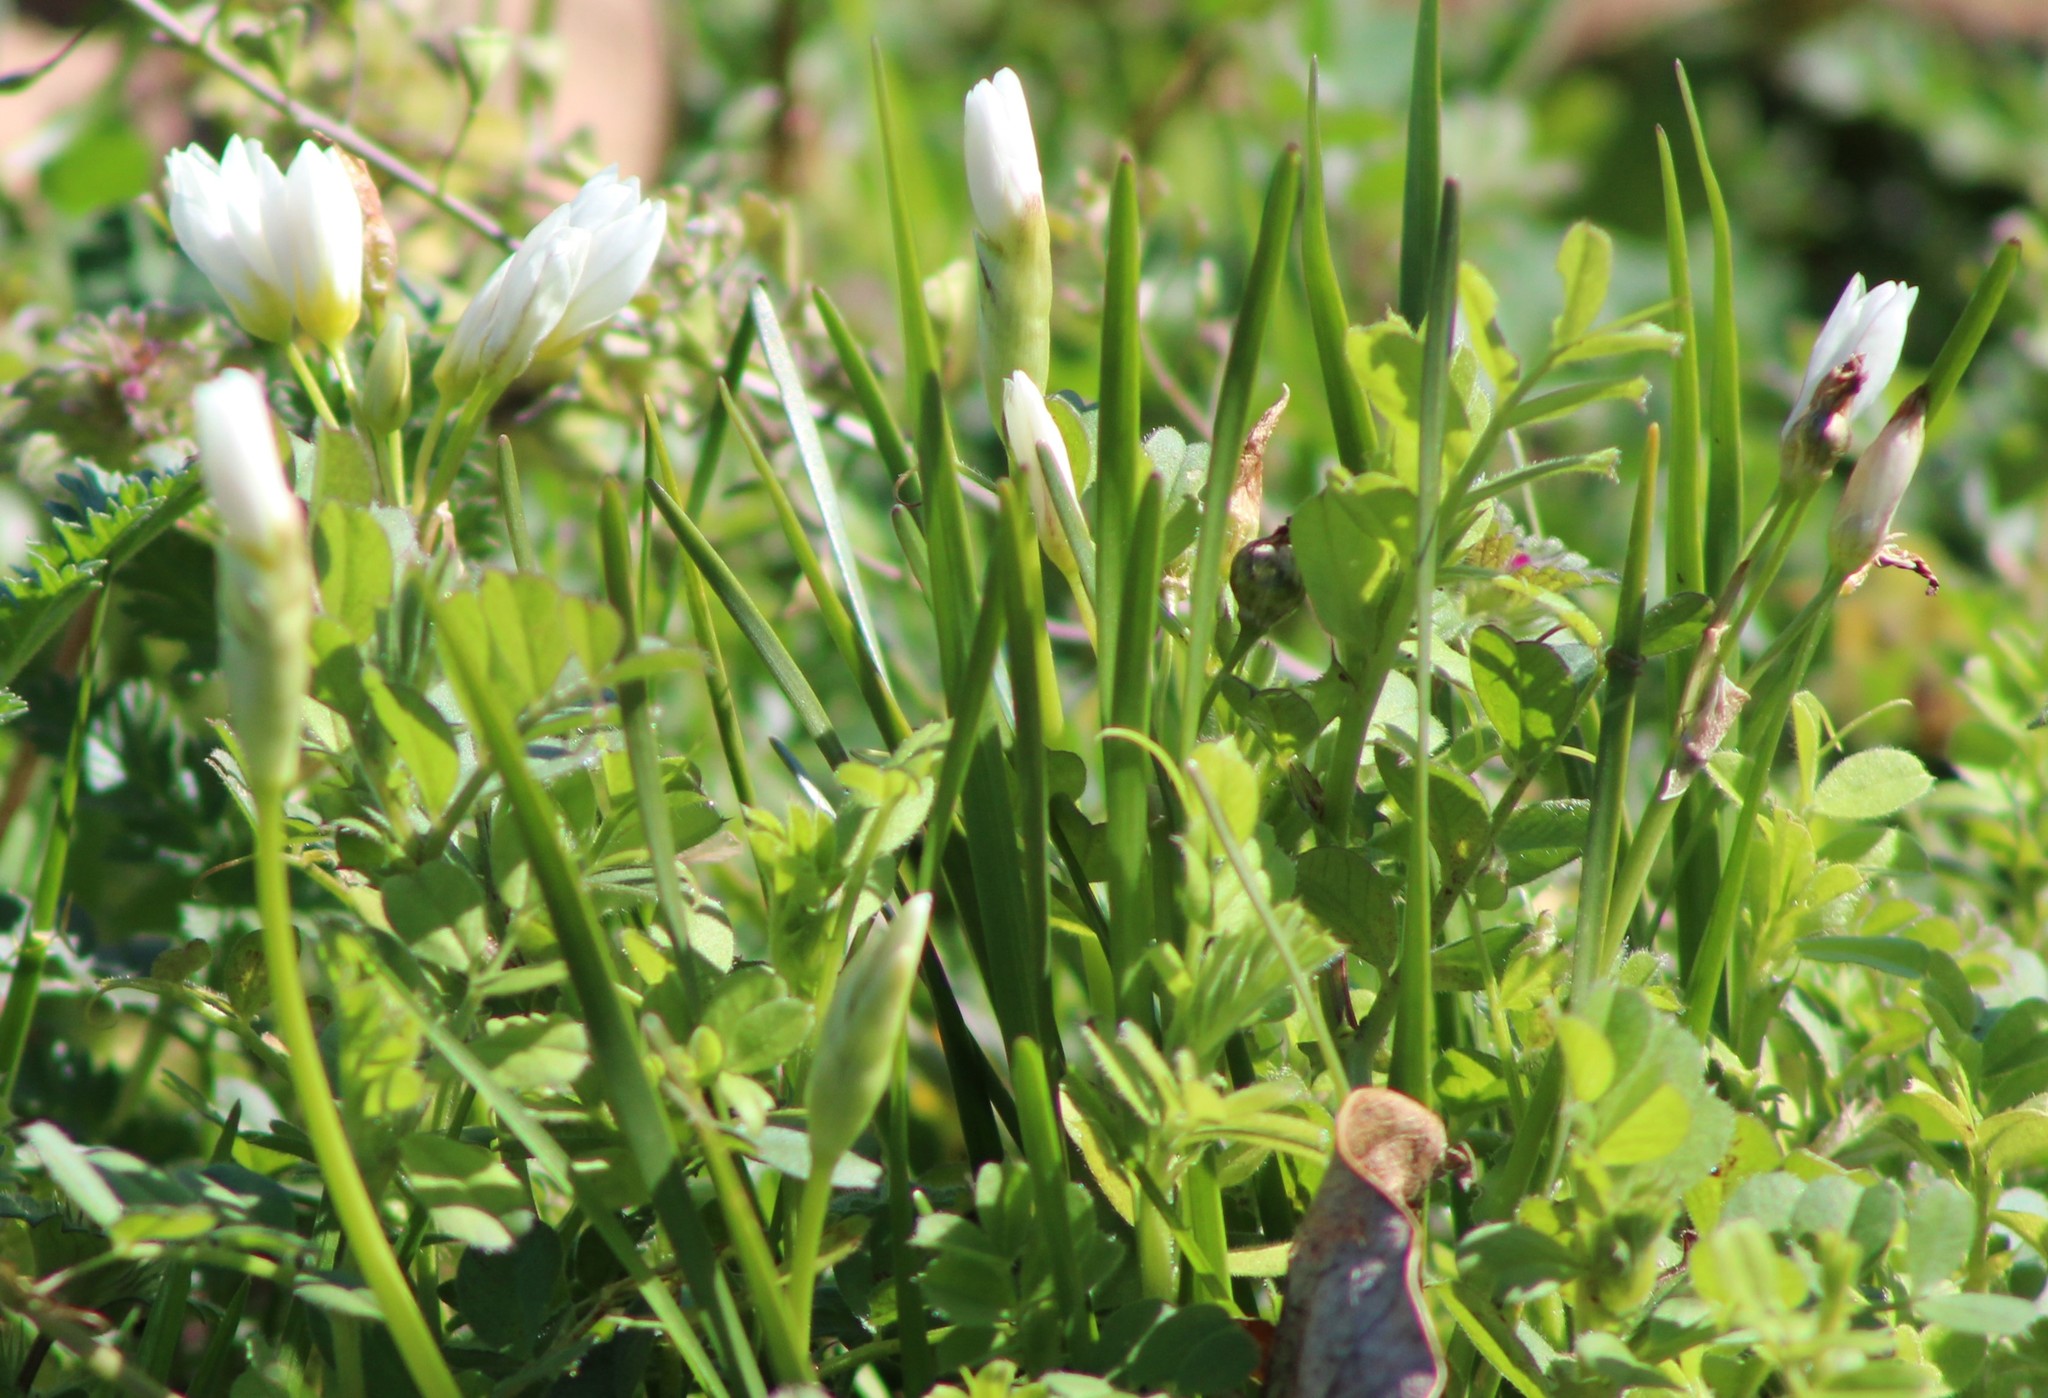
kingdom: Plantae
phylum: Tracheophyta
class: Liliopsida
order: Asparagales
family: Amaryllidaceae
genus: Nothoscordum
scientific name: Nothoscordum bivalve
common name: Crow-poison
